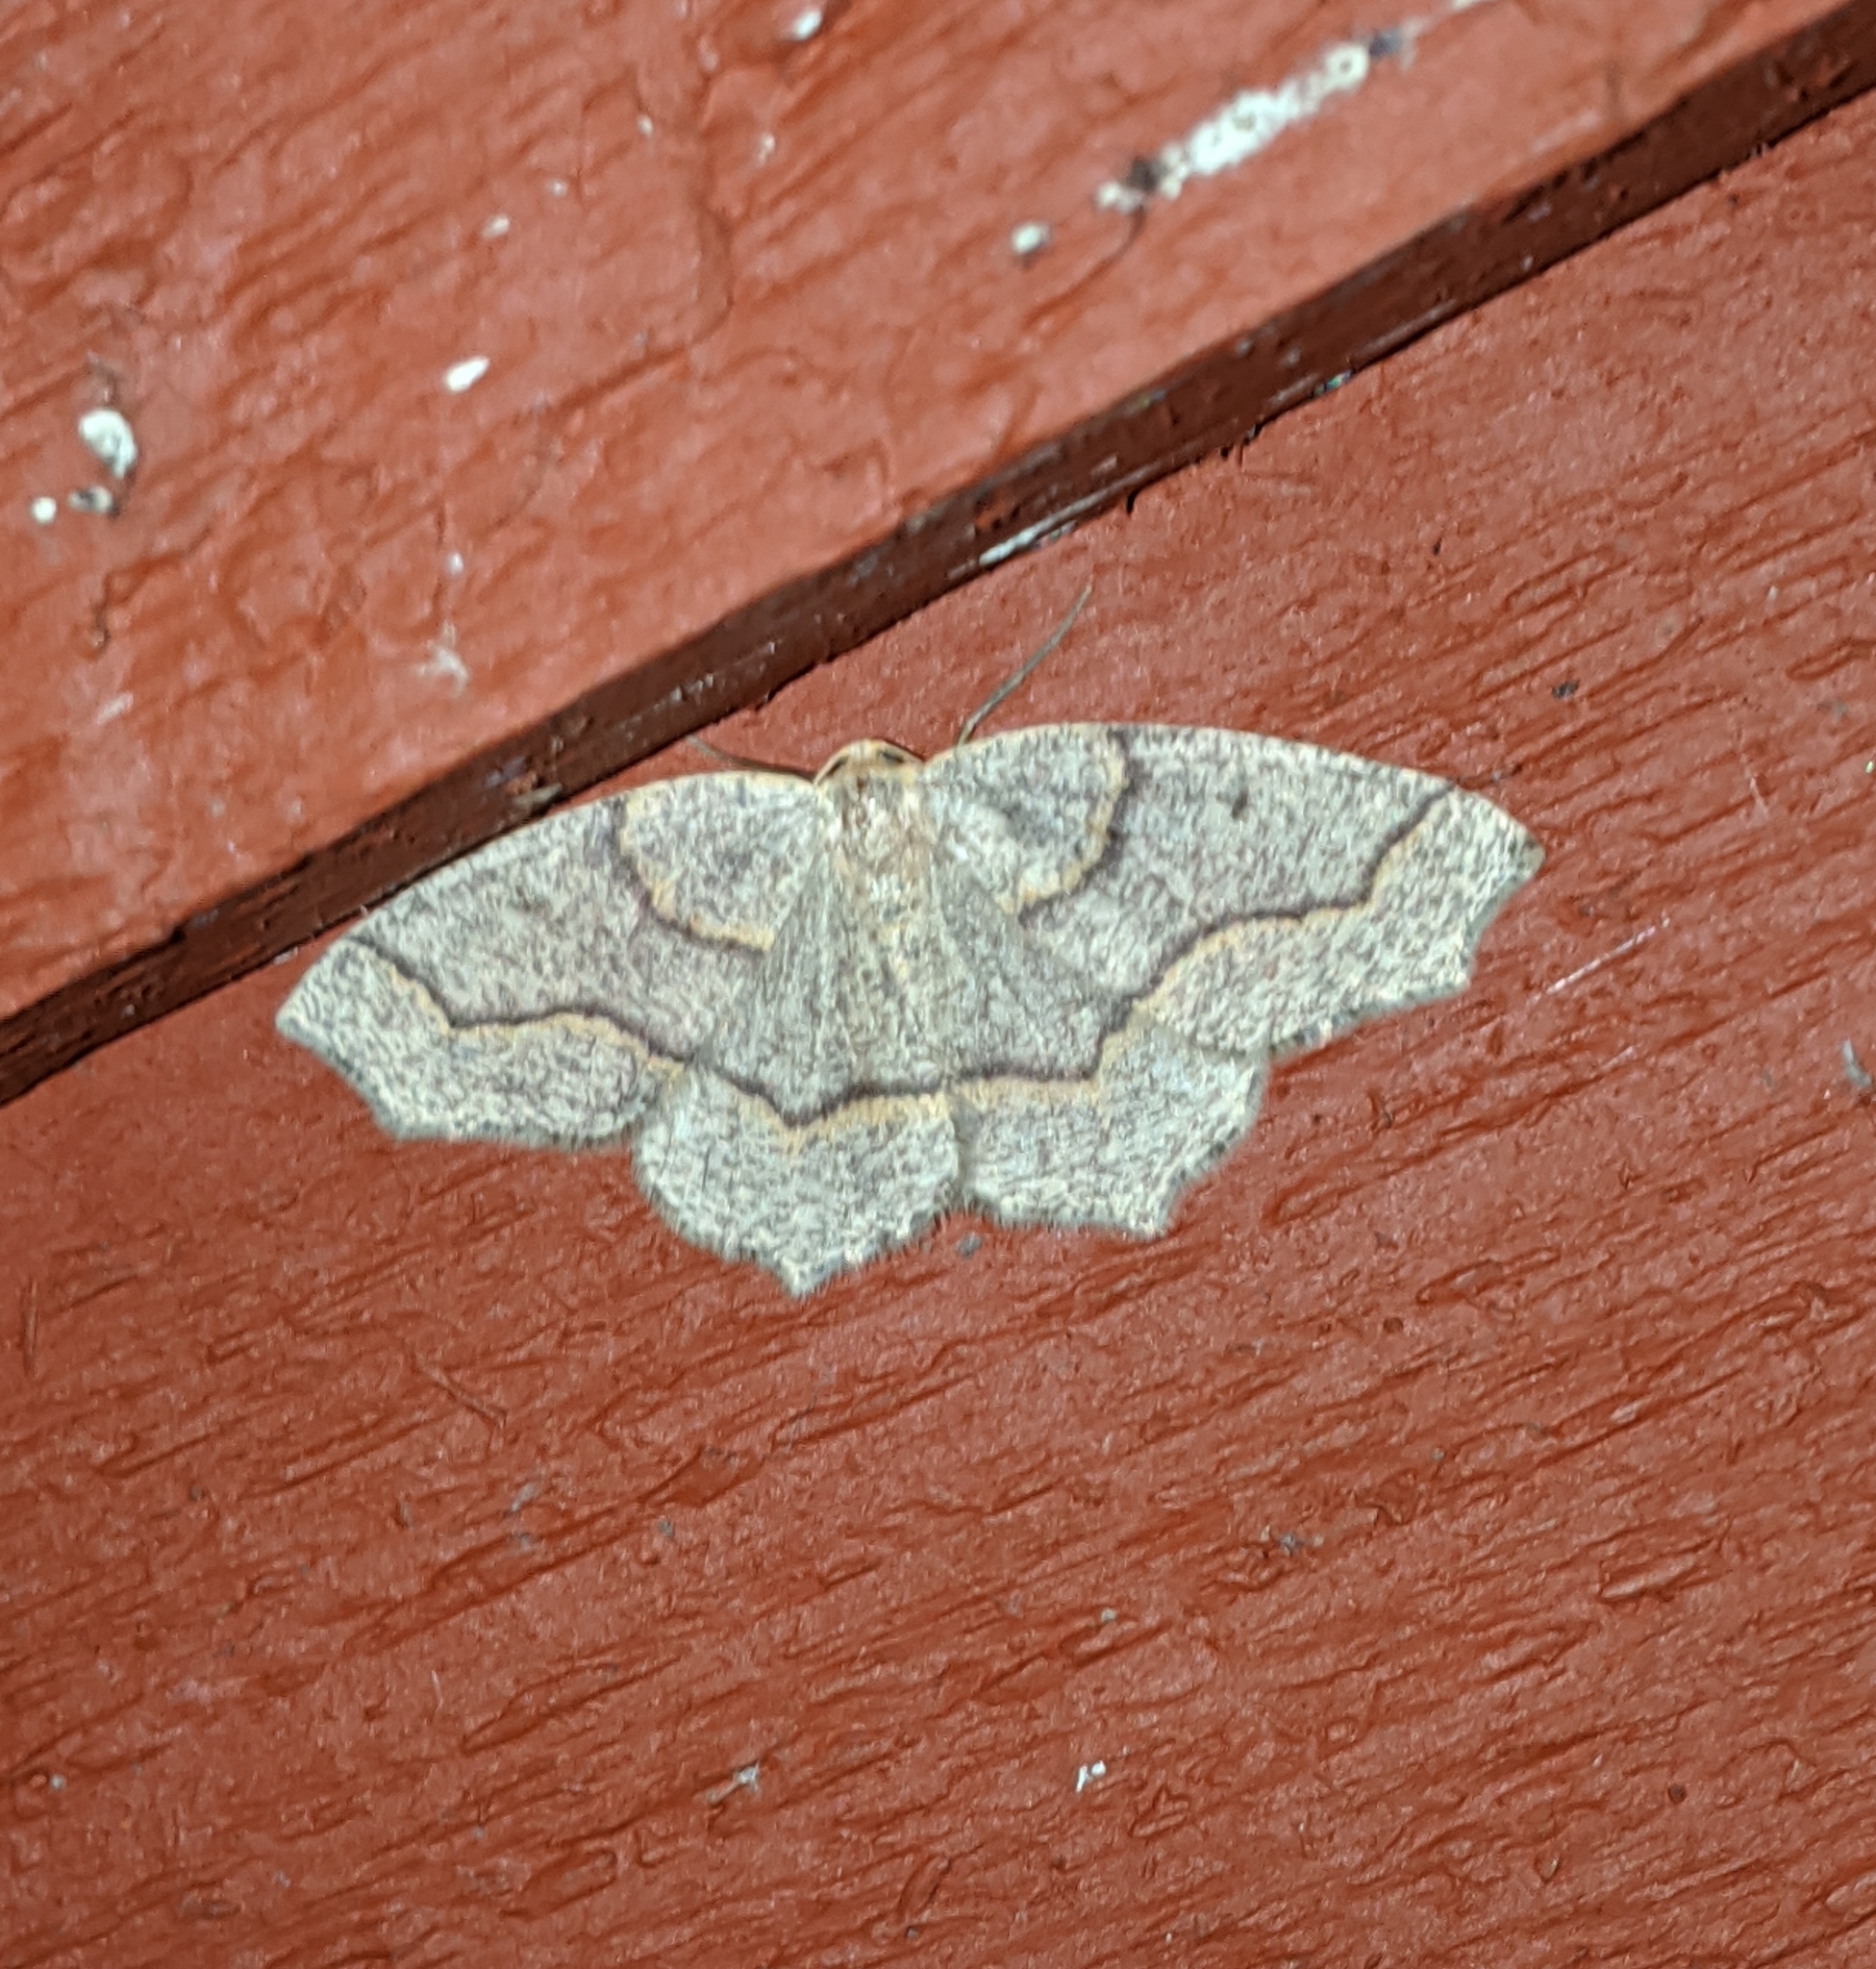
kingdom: Animalia
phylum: Arthropoda
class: Insecta
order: Lepidoptera
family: Geometridae
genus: Lambdina
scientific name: Lambdina fiscellaria
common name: Hemlock looper
